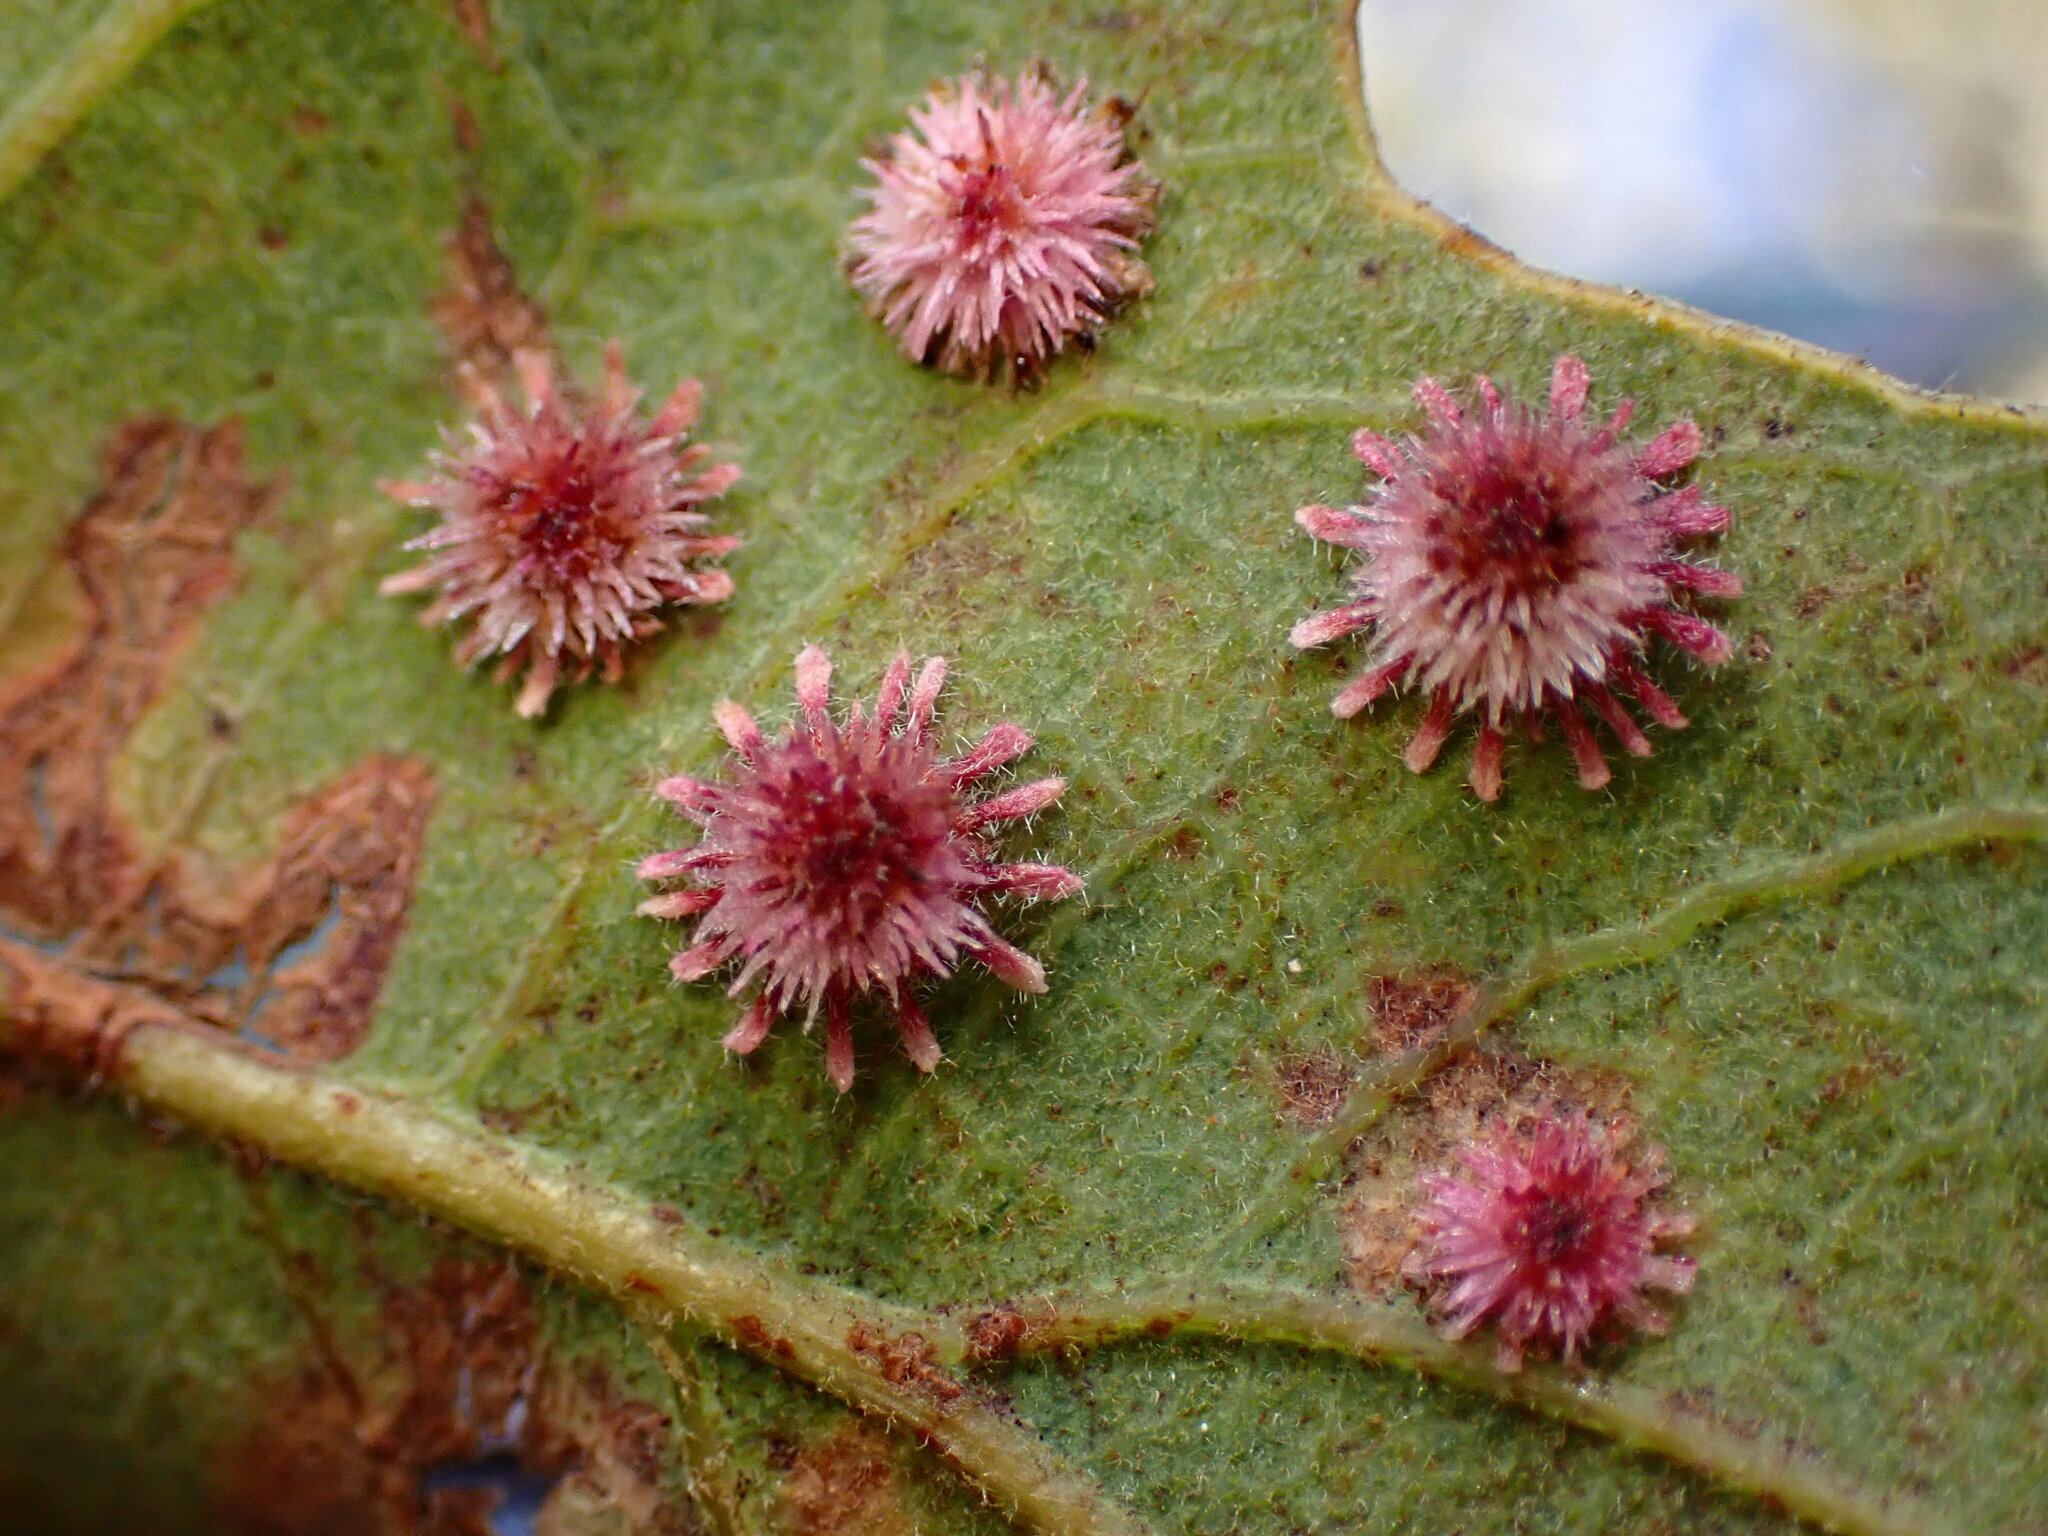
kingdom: Animalia
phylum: Arthropoda
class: Insecta
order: Hymenoptera
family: Cynipidae
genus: Andricus
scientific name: Andricus
